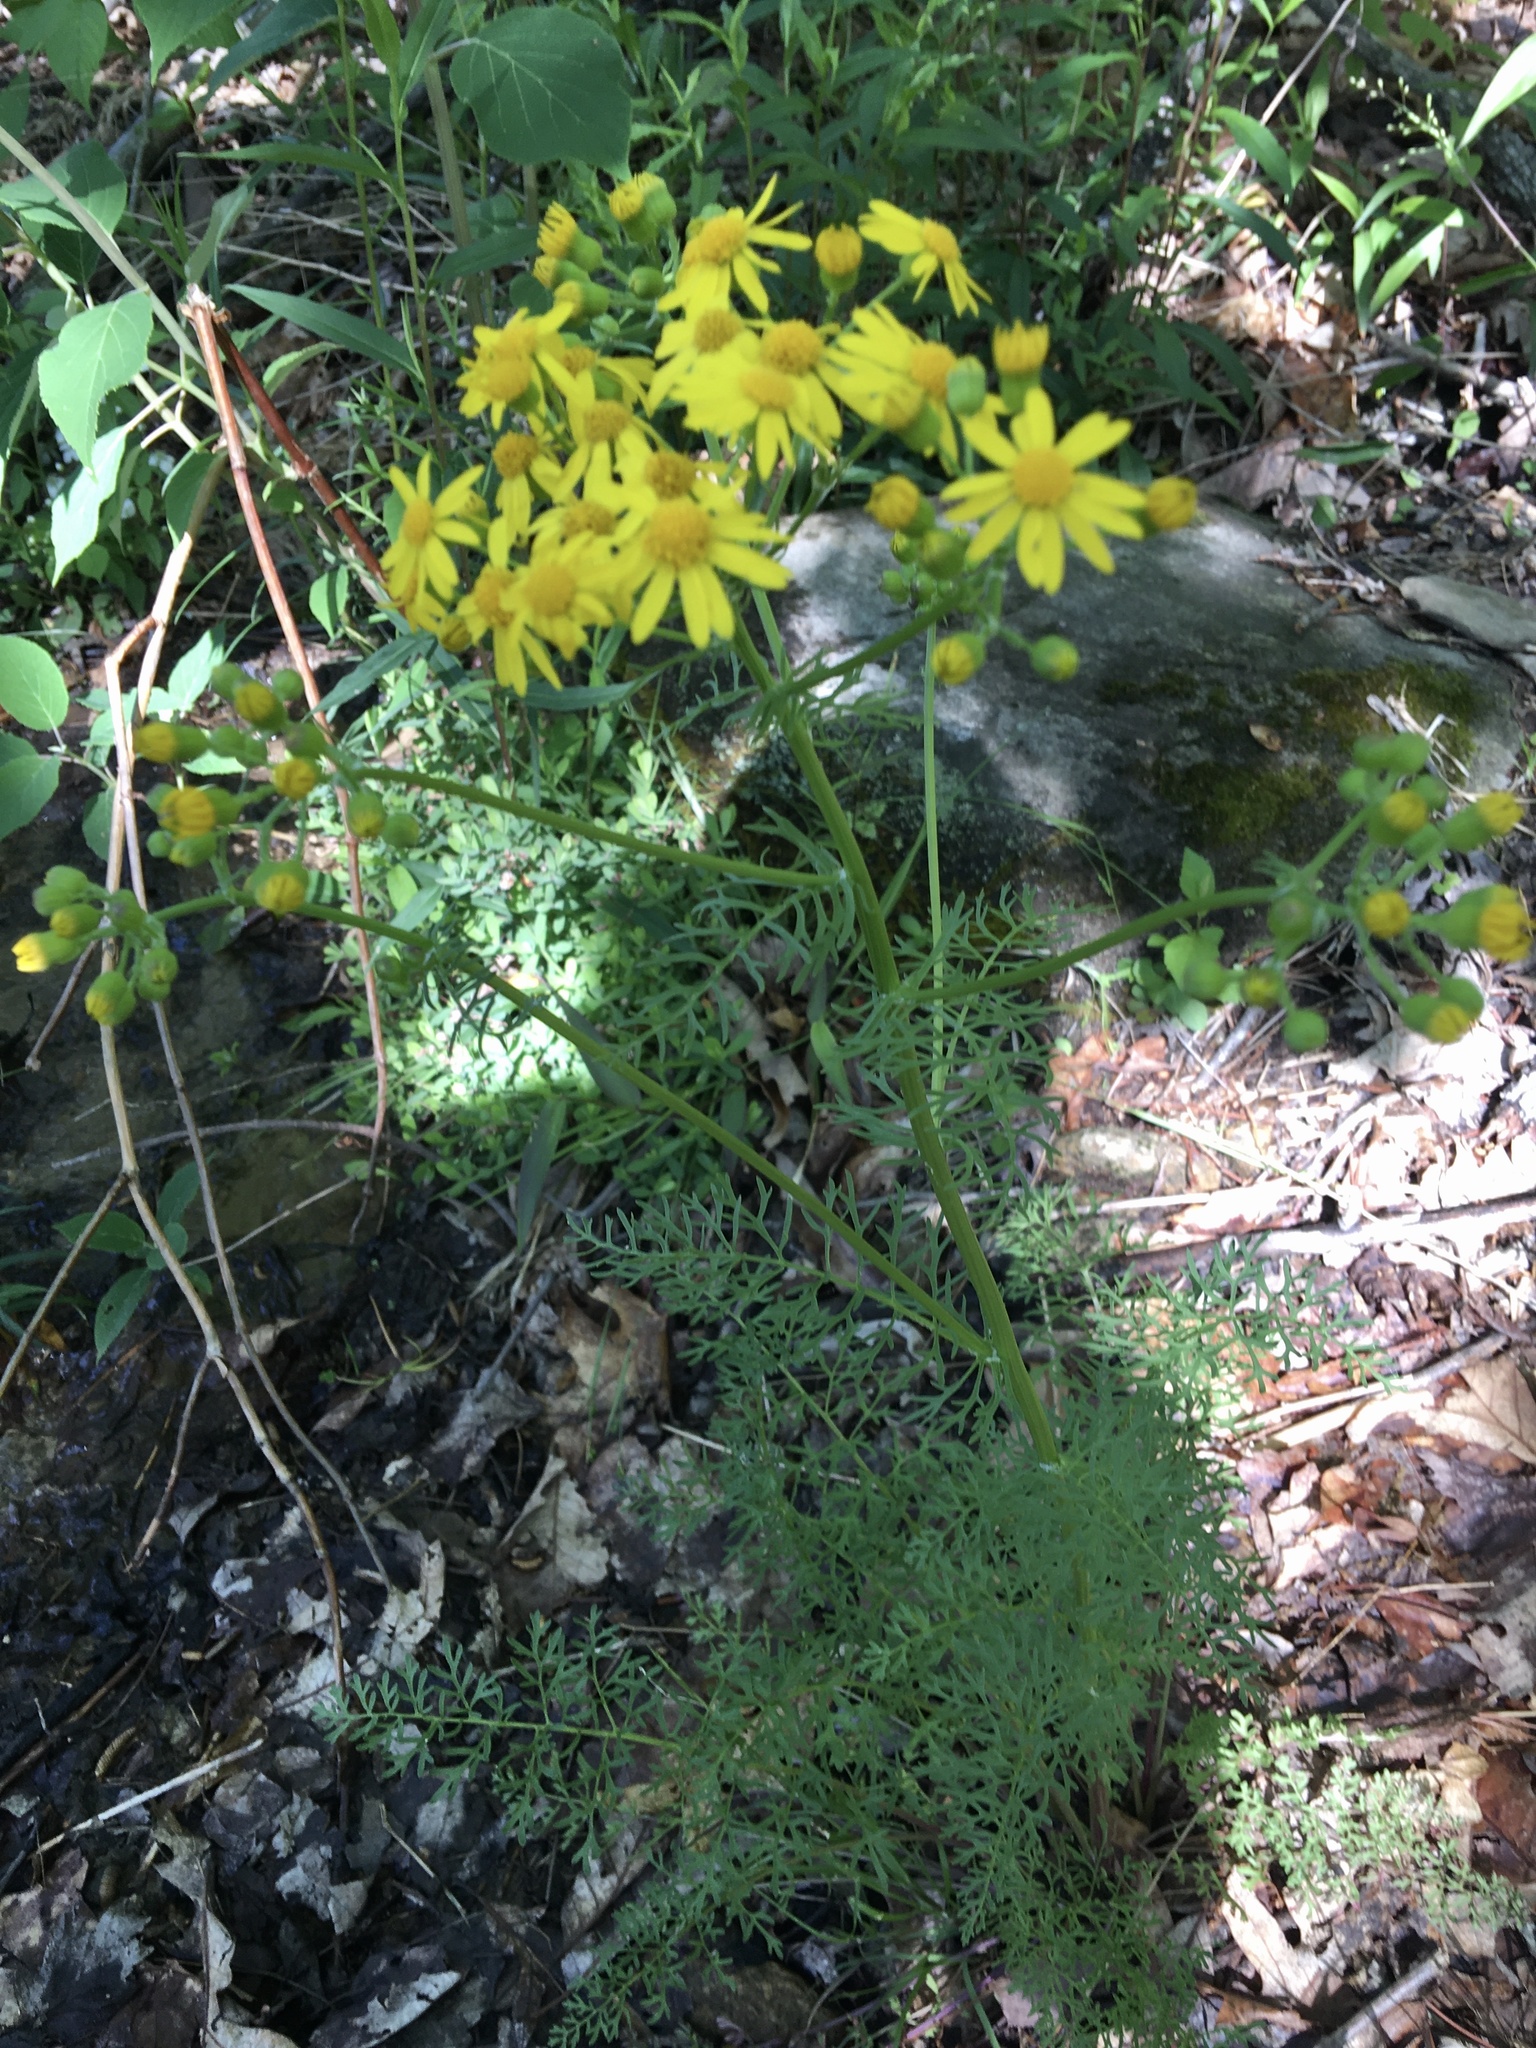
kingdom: Plantae
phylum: Tracheophyta
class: Magnoliopsida
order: Asterales
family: Asteraceae
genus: Packera
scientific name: Packera millefolia
